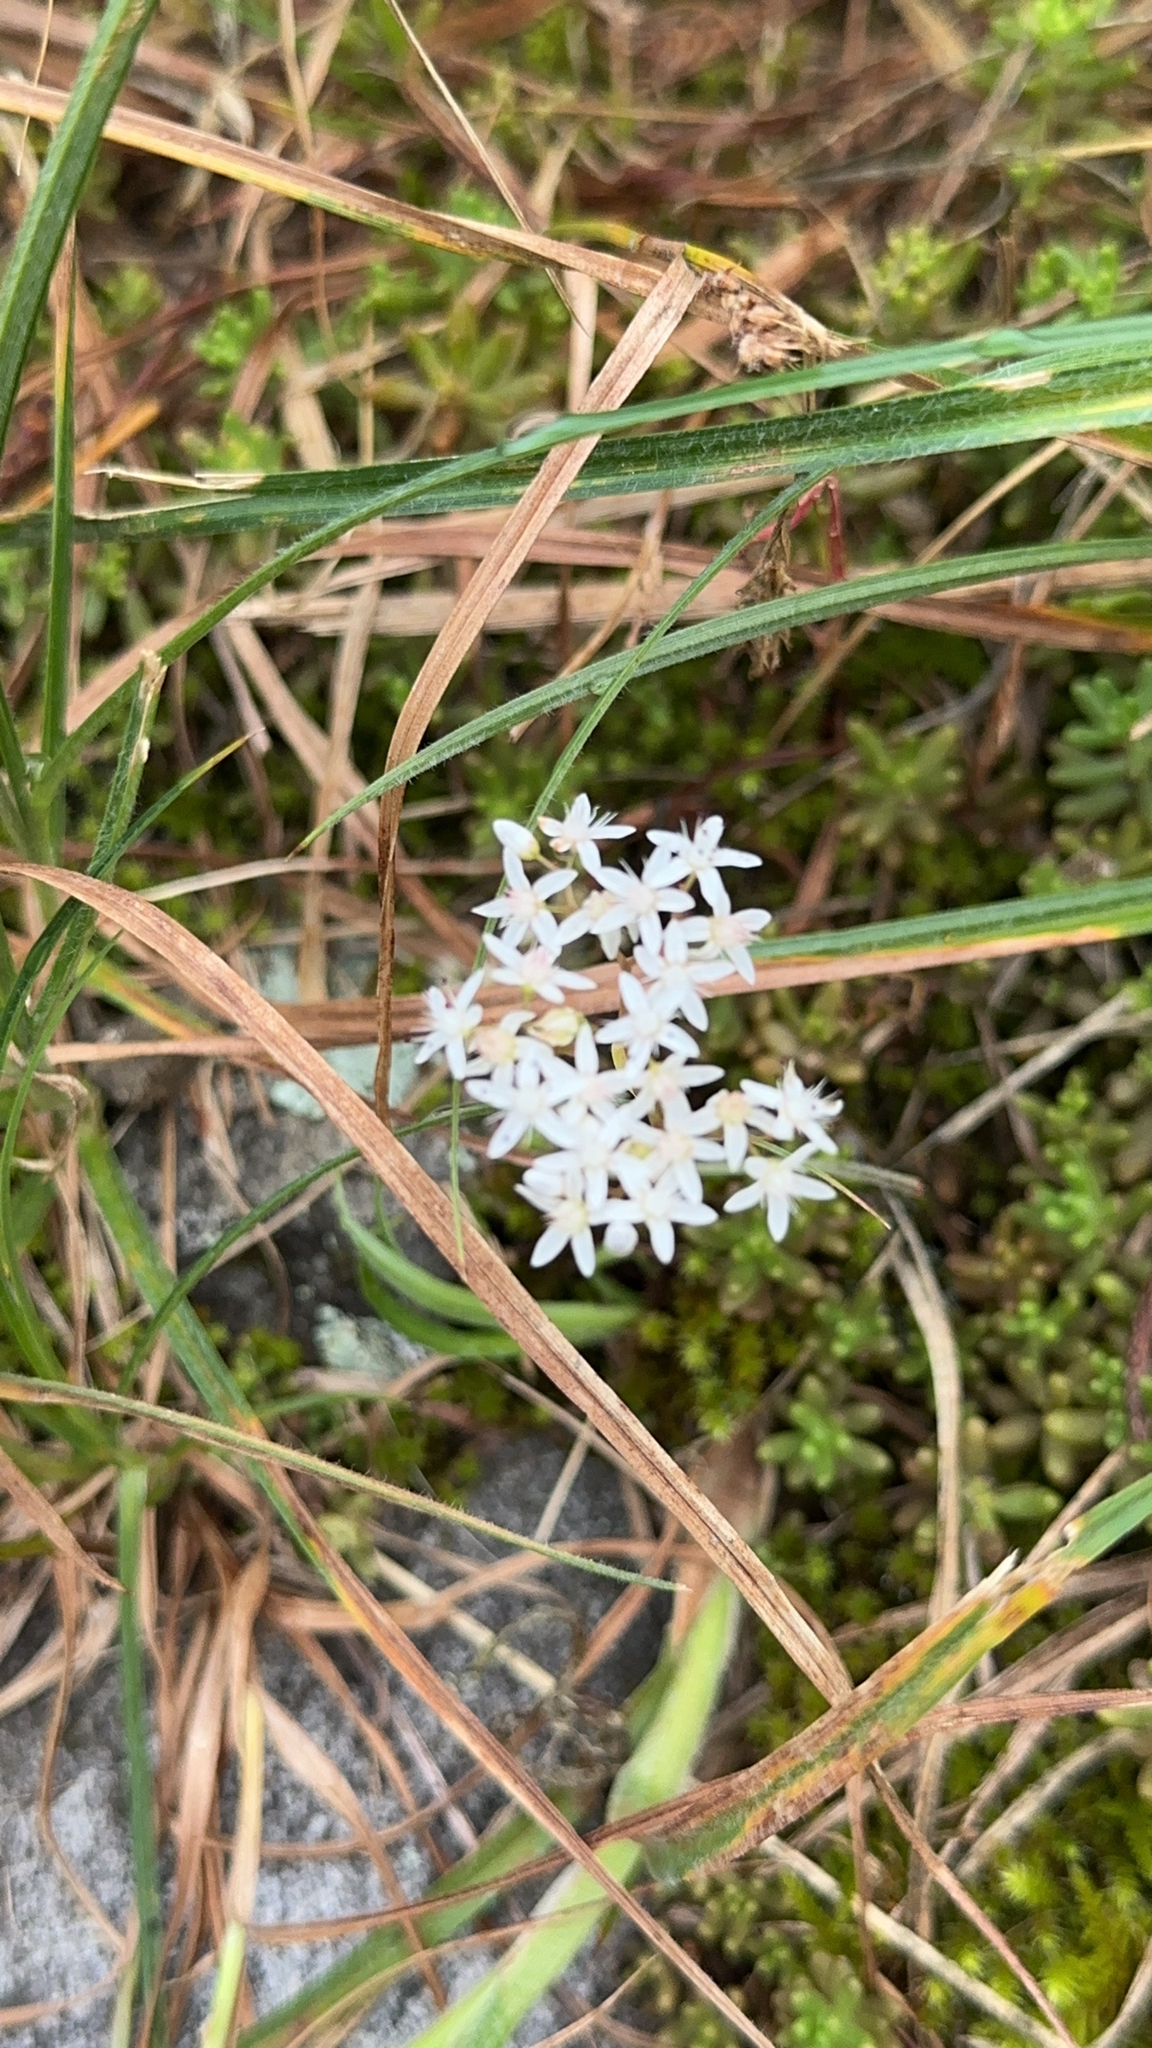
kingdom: Plantae
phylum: Tracheophyta
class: Magnoliopsida
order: Saxifragales
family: Crassulaceae
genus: Sedum
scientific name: Sedum album
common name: White stonecrop
